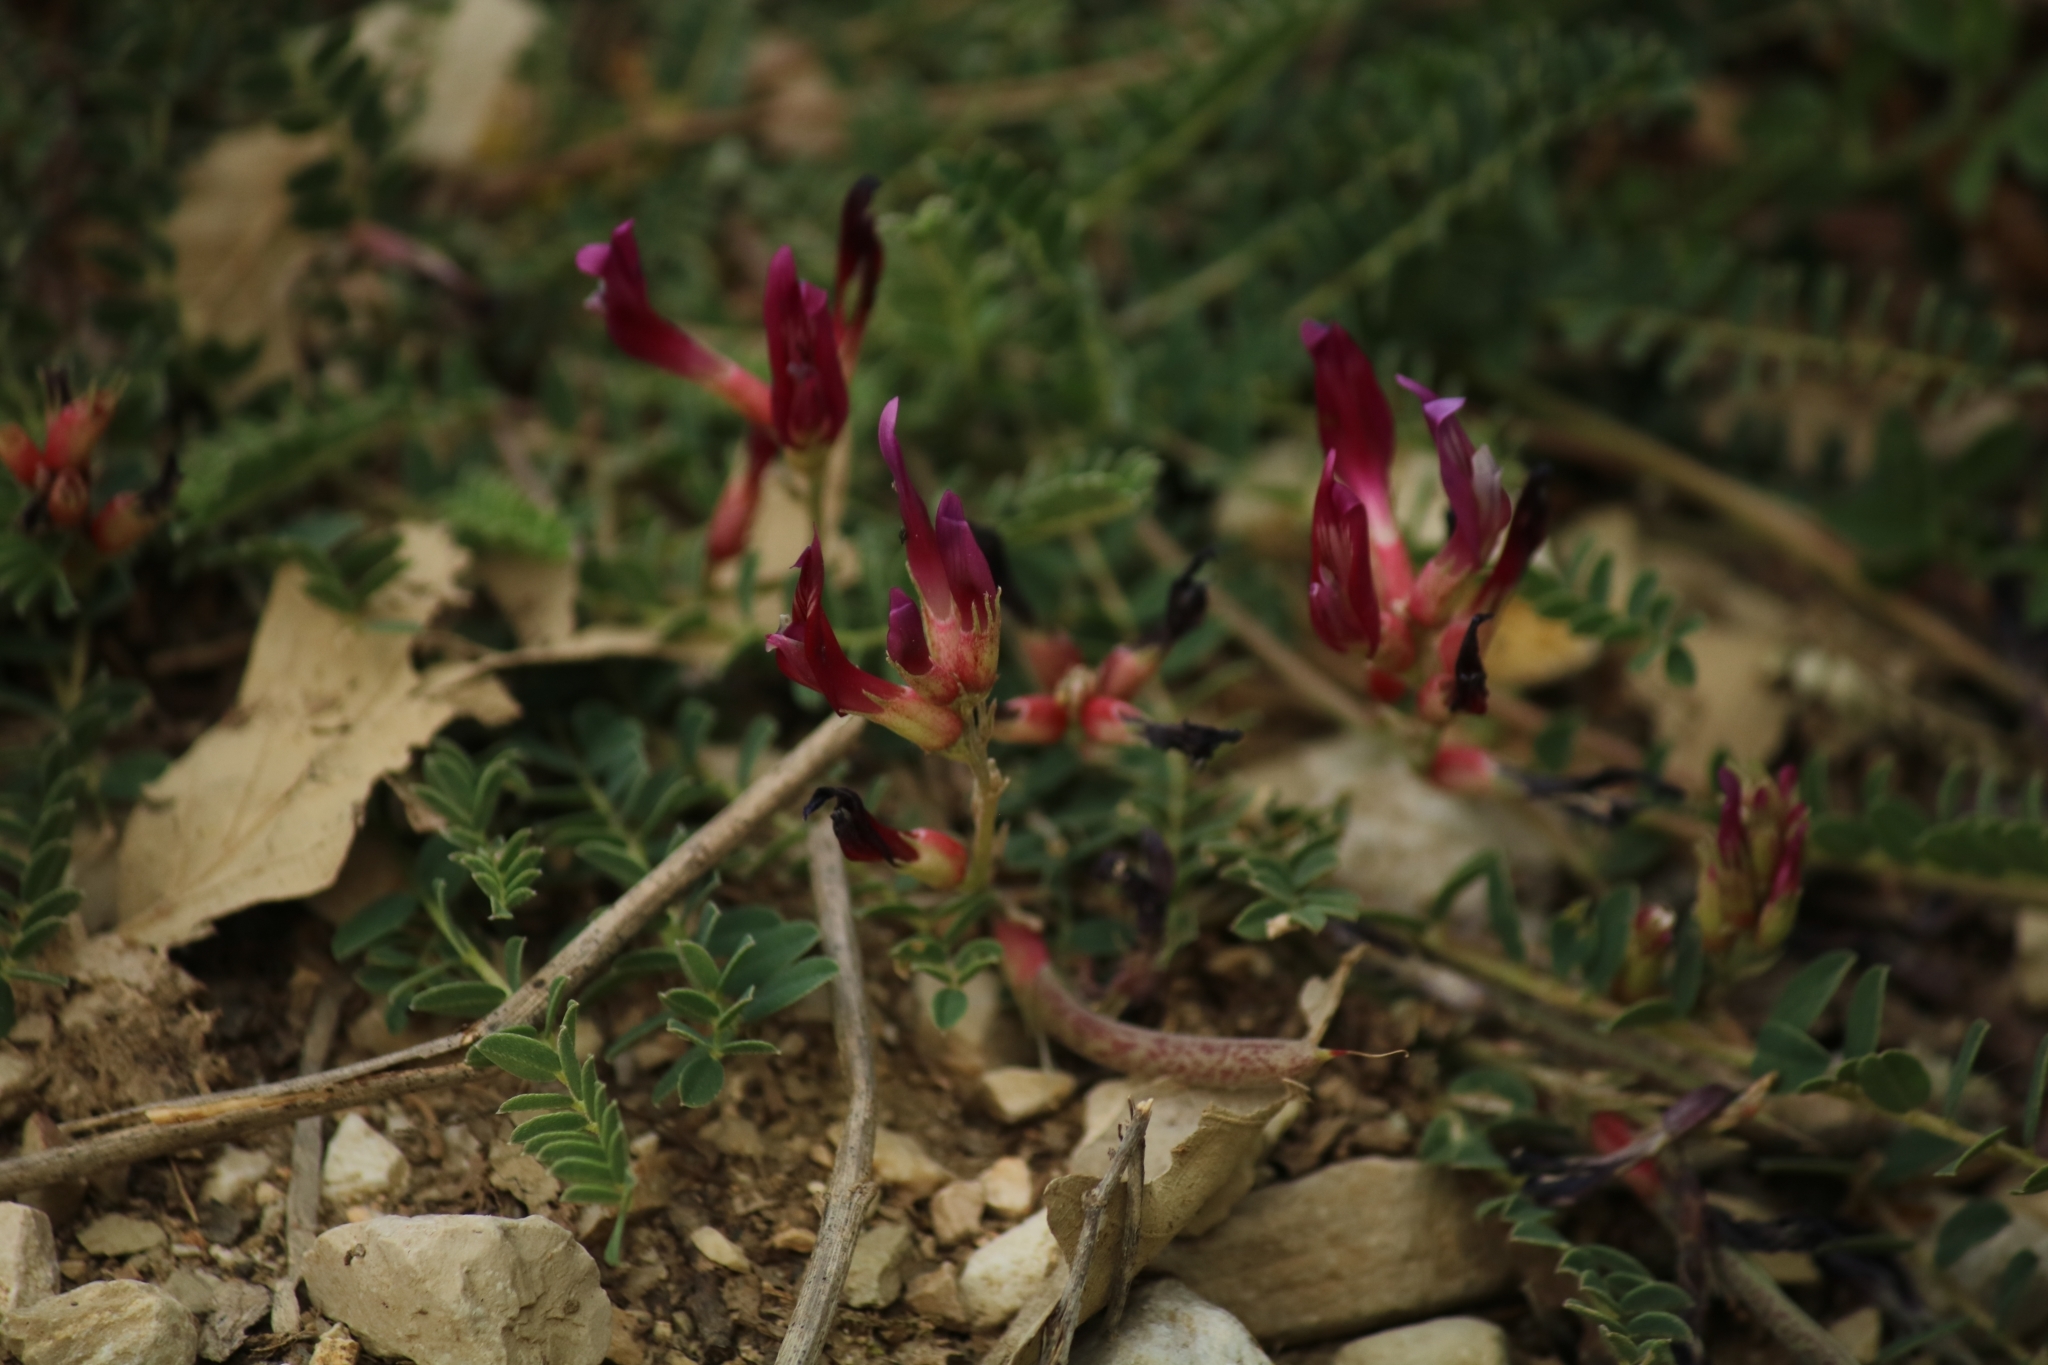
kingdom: Plantae
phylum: Tracheophyta
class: Magnoliopsida
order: Fabales
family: Fabaceae
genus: Astragalus
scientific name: Astragalus monspessulanus
